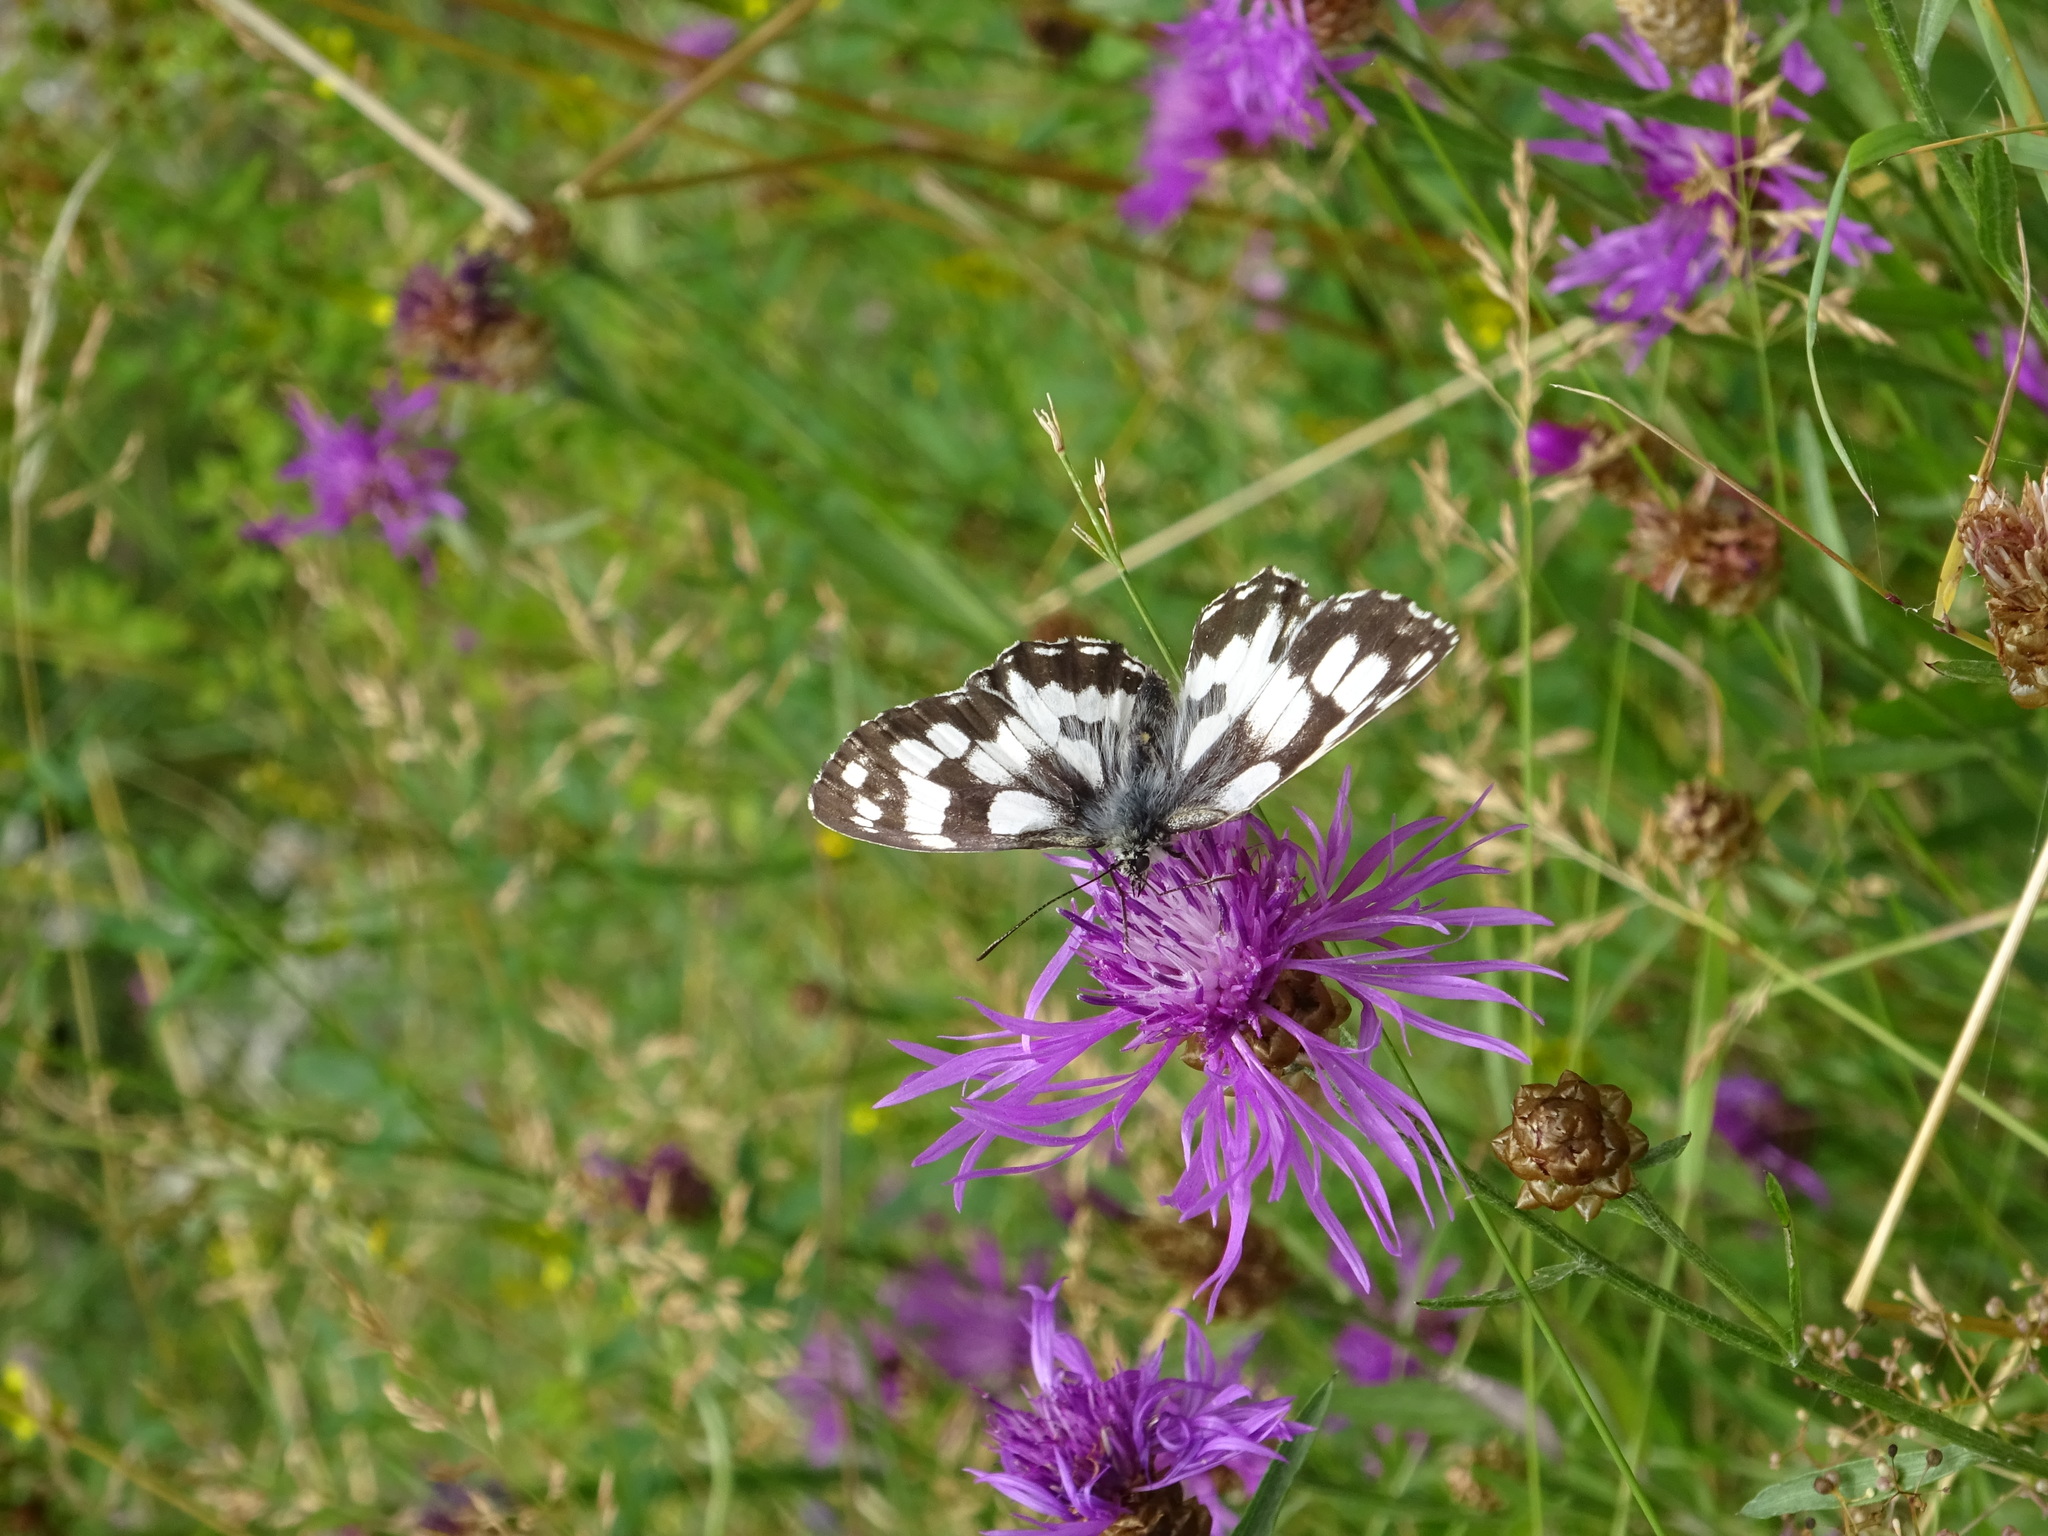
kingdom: Animalia
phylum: Arthropoda
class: Insecta
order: Lepidoptera
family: Nymphalidae
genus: Melanargia
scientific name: Melanargia galathea
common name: Marbled white
